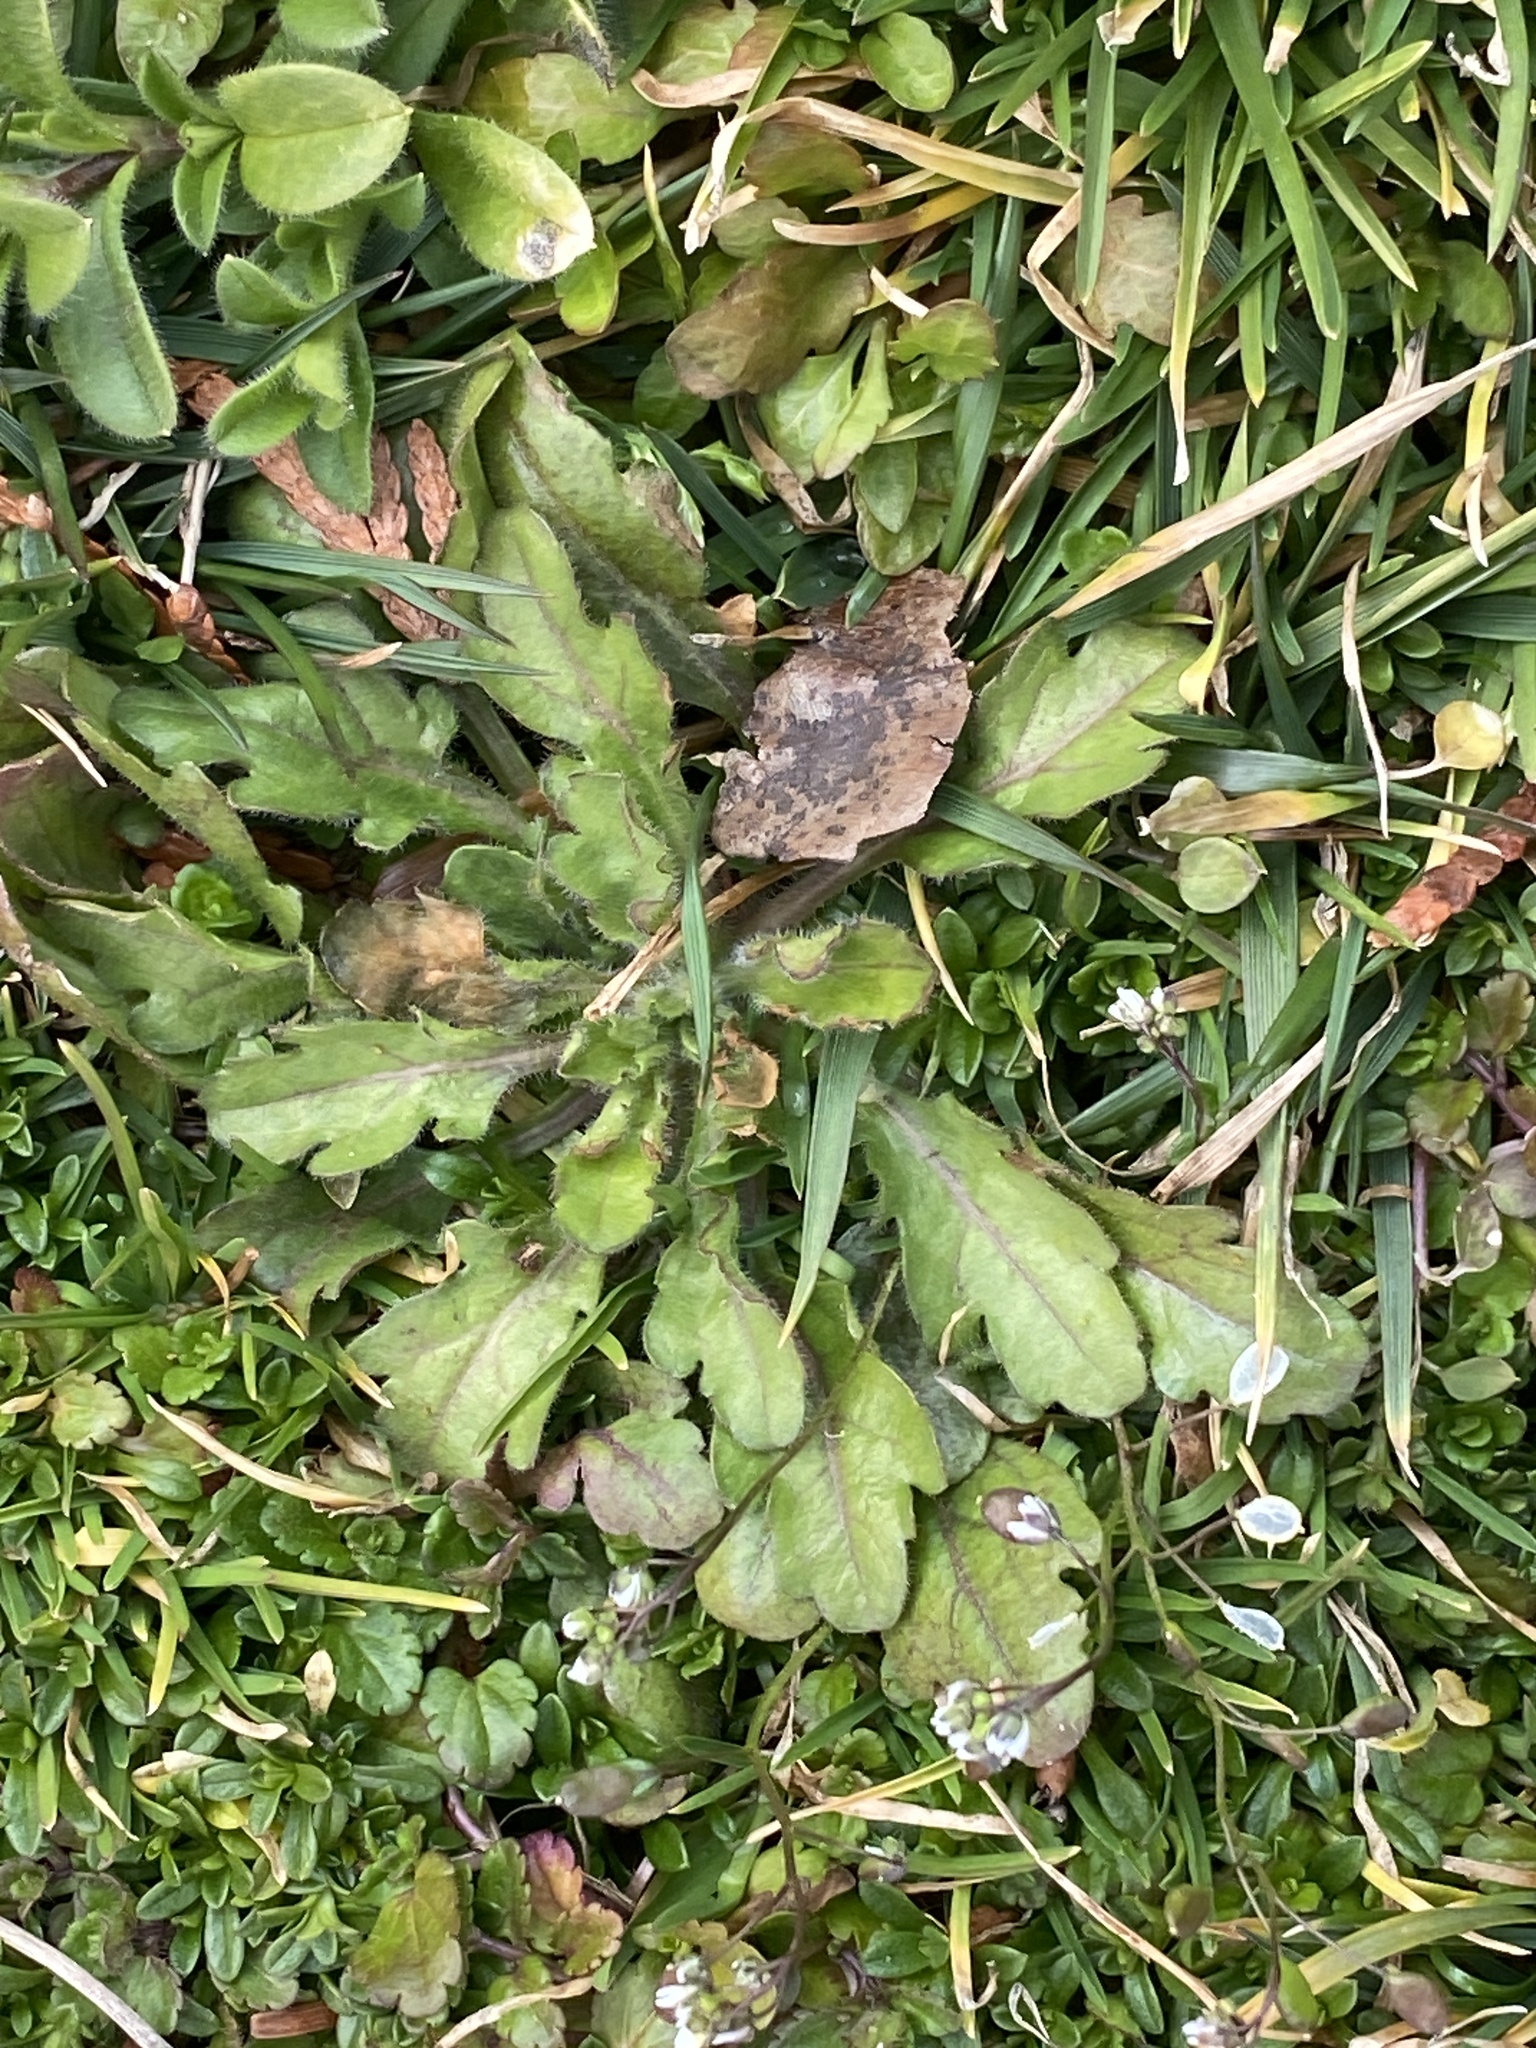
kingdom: Plantae
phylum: Tracheophyta
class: Magnoliopsida
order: Asterales
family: Asteraceae
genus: Erigeron
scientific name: Erigeron canadensis
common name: Canadian fleabane
